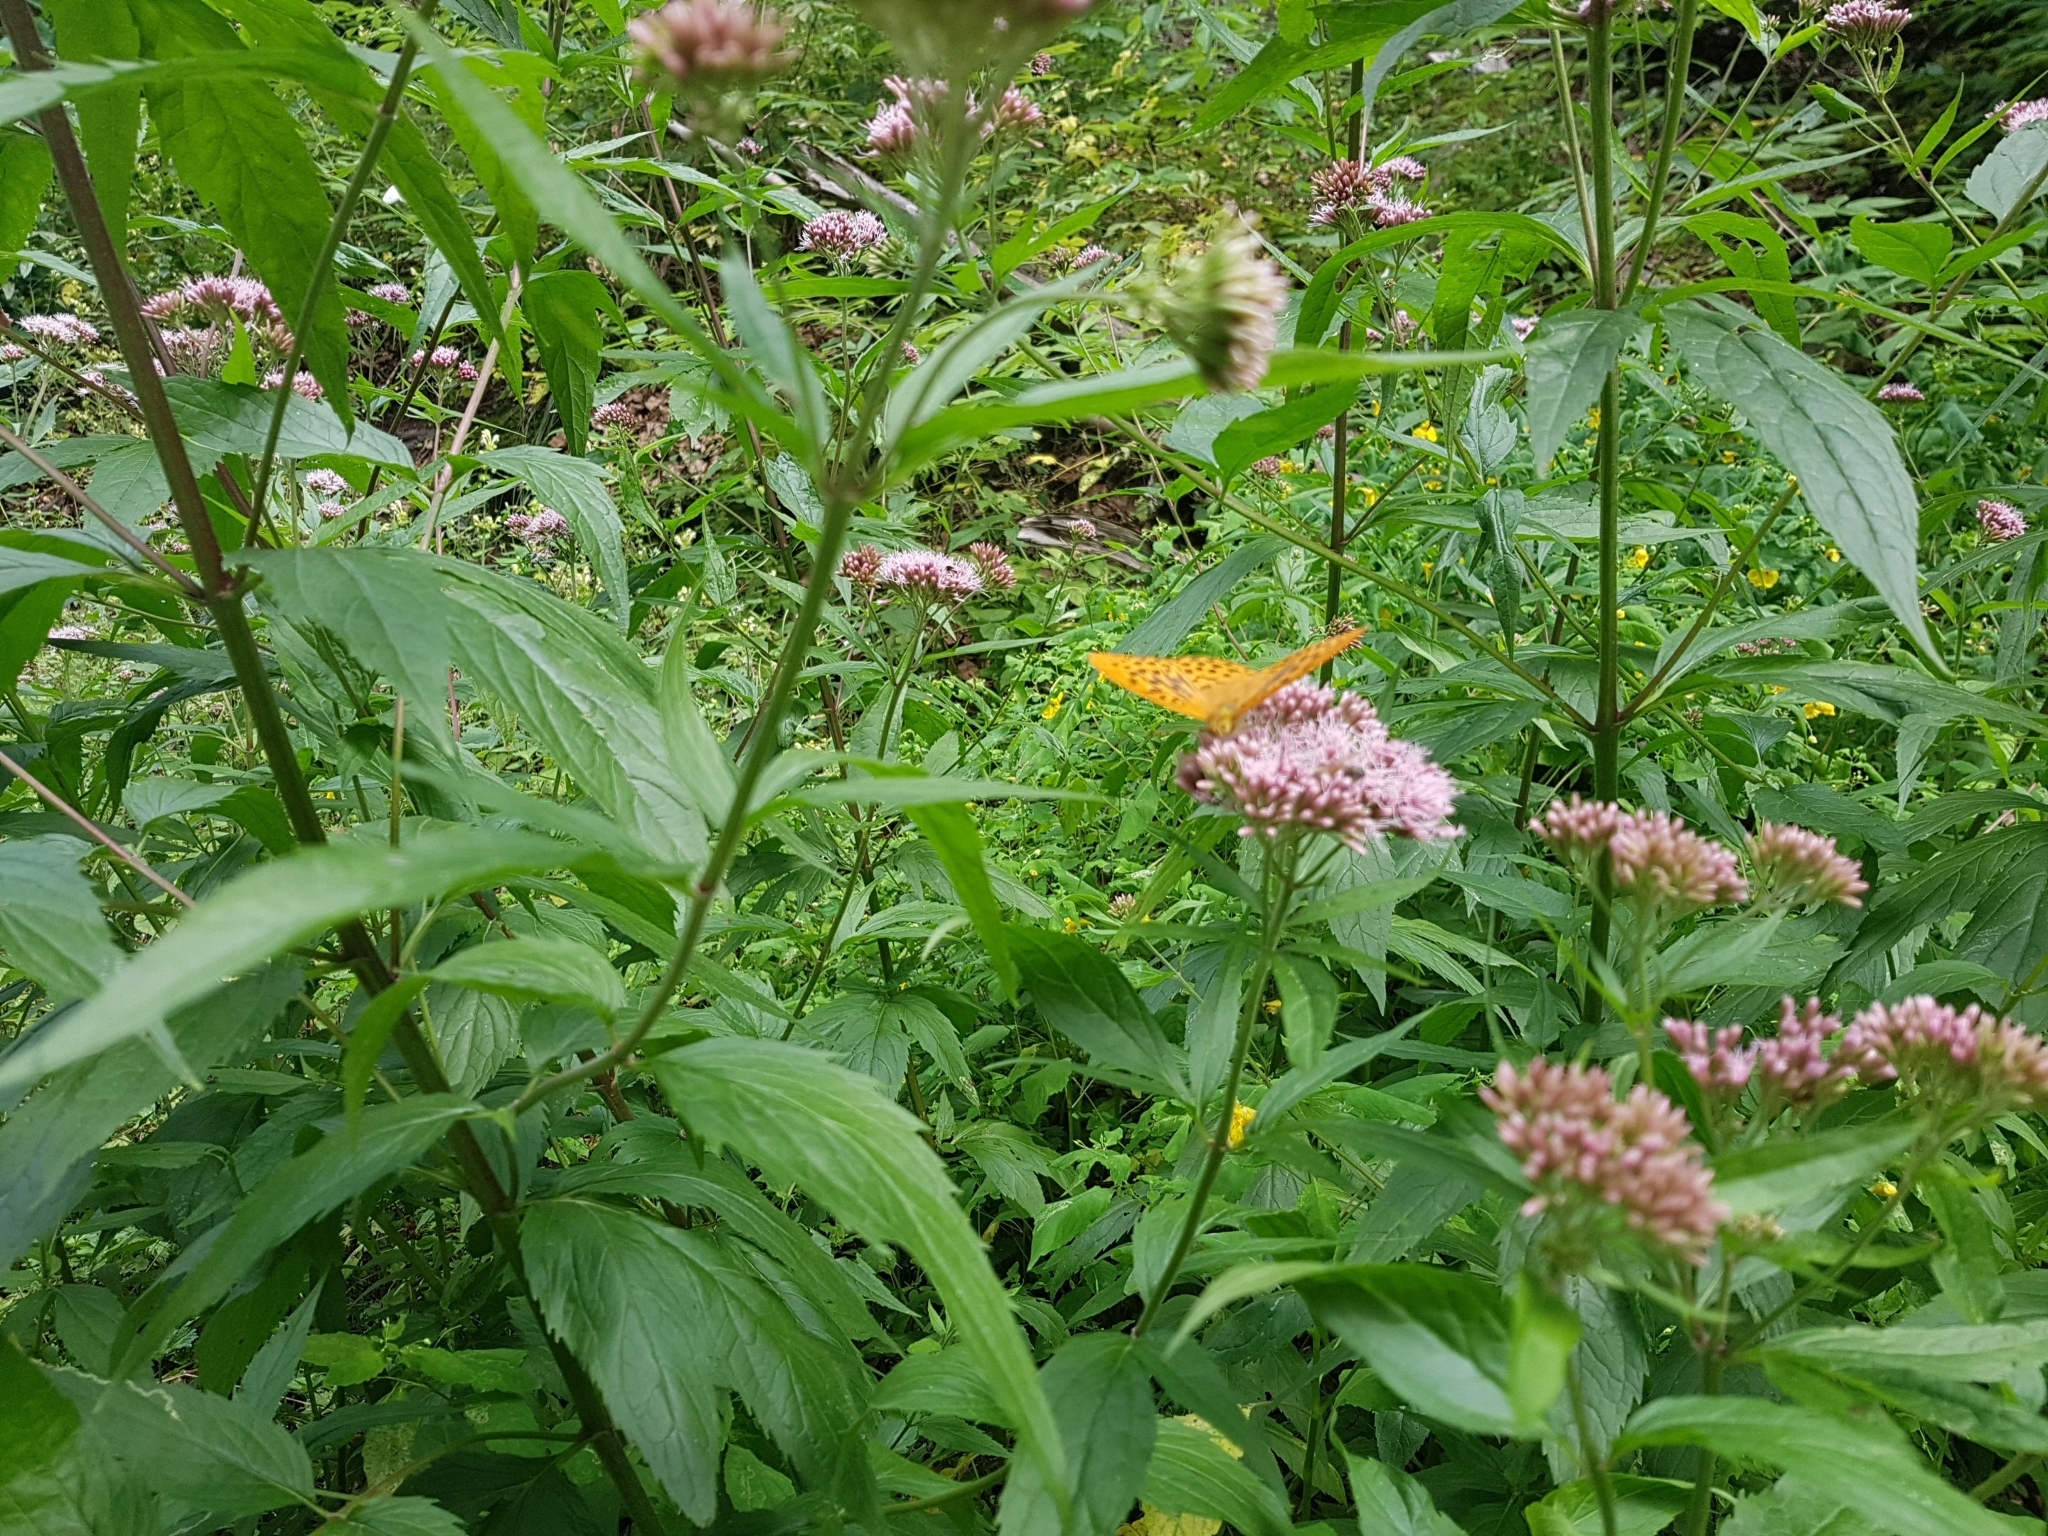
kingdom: Animalia
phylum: Arthropoda
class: Insecta
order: Lepidoptera
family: Nymphalidae
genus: Argynnis
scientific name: Argynnis paphia
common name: Silver-washed fritillary
